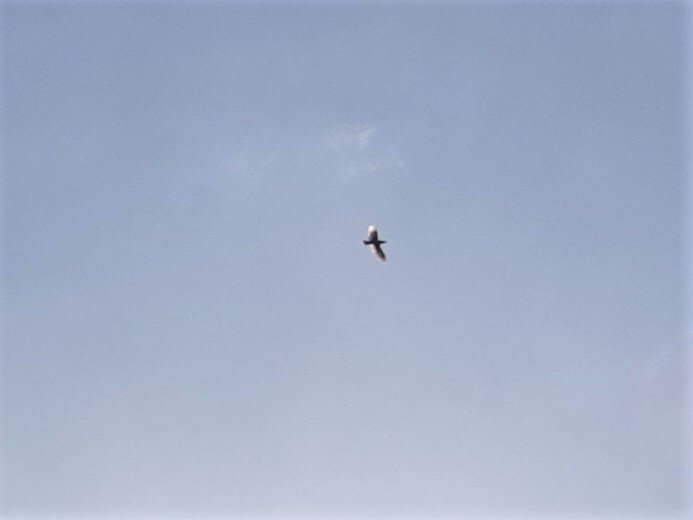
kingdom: Animalia
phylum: Chordata
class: Aves
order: Psittaciformes
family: Psittacidae
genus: Nestor
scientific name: Nestor meridionalis
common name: New zealand kaka
